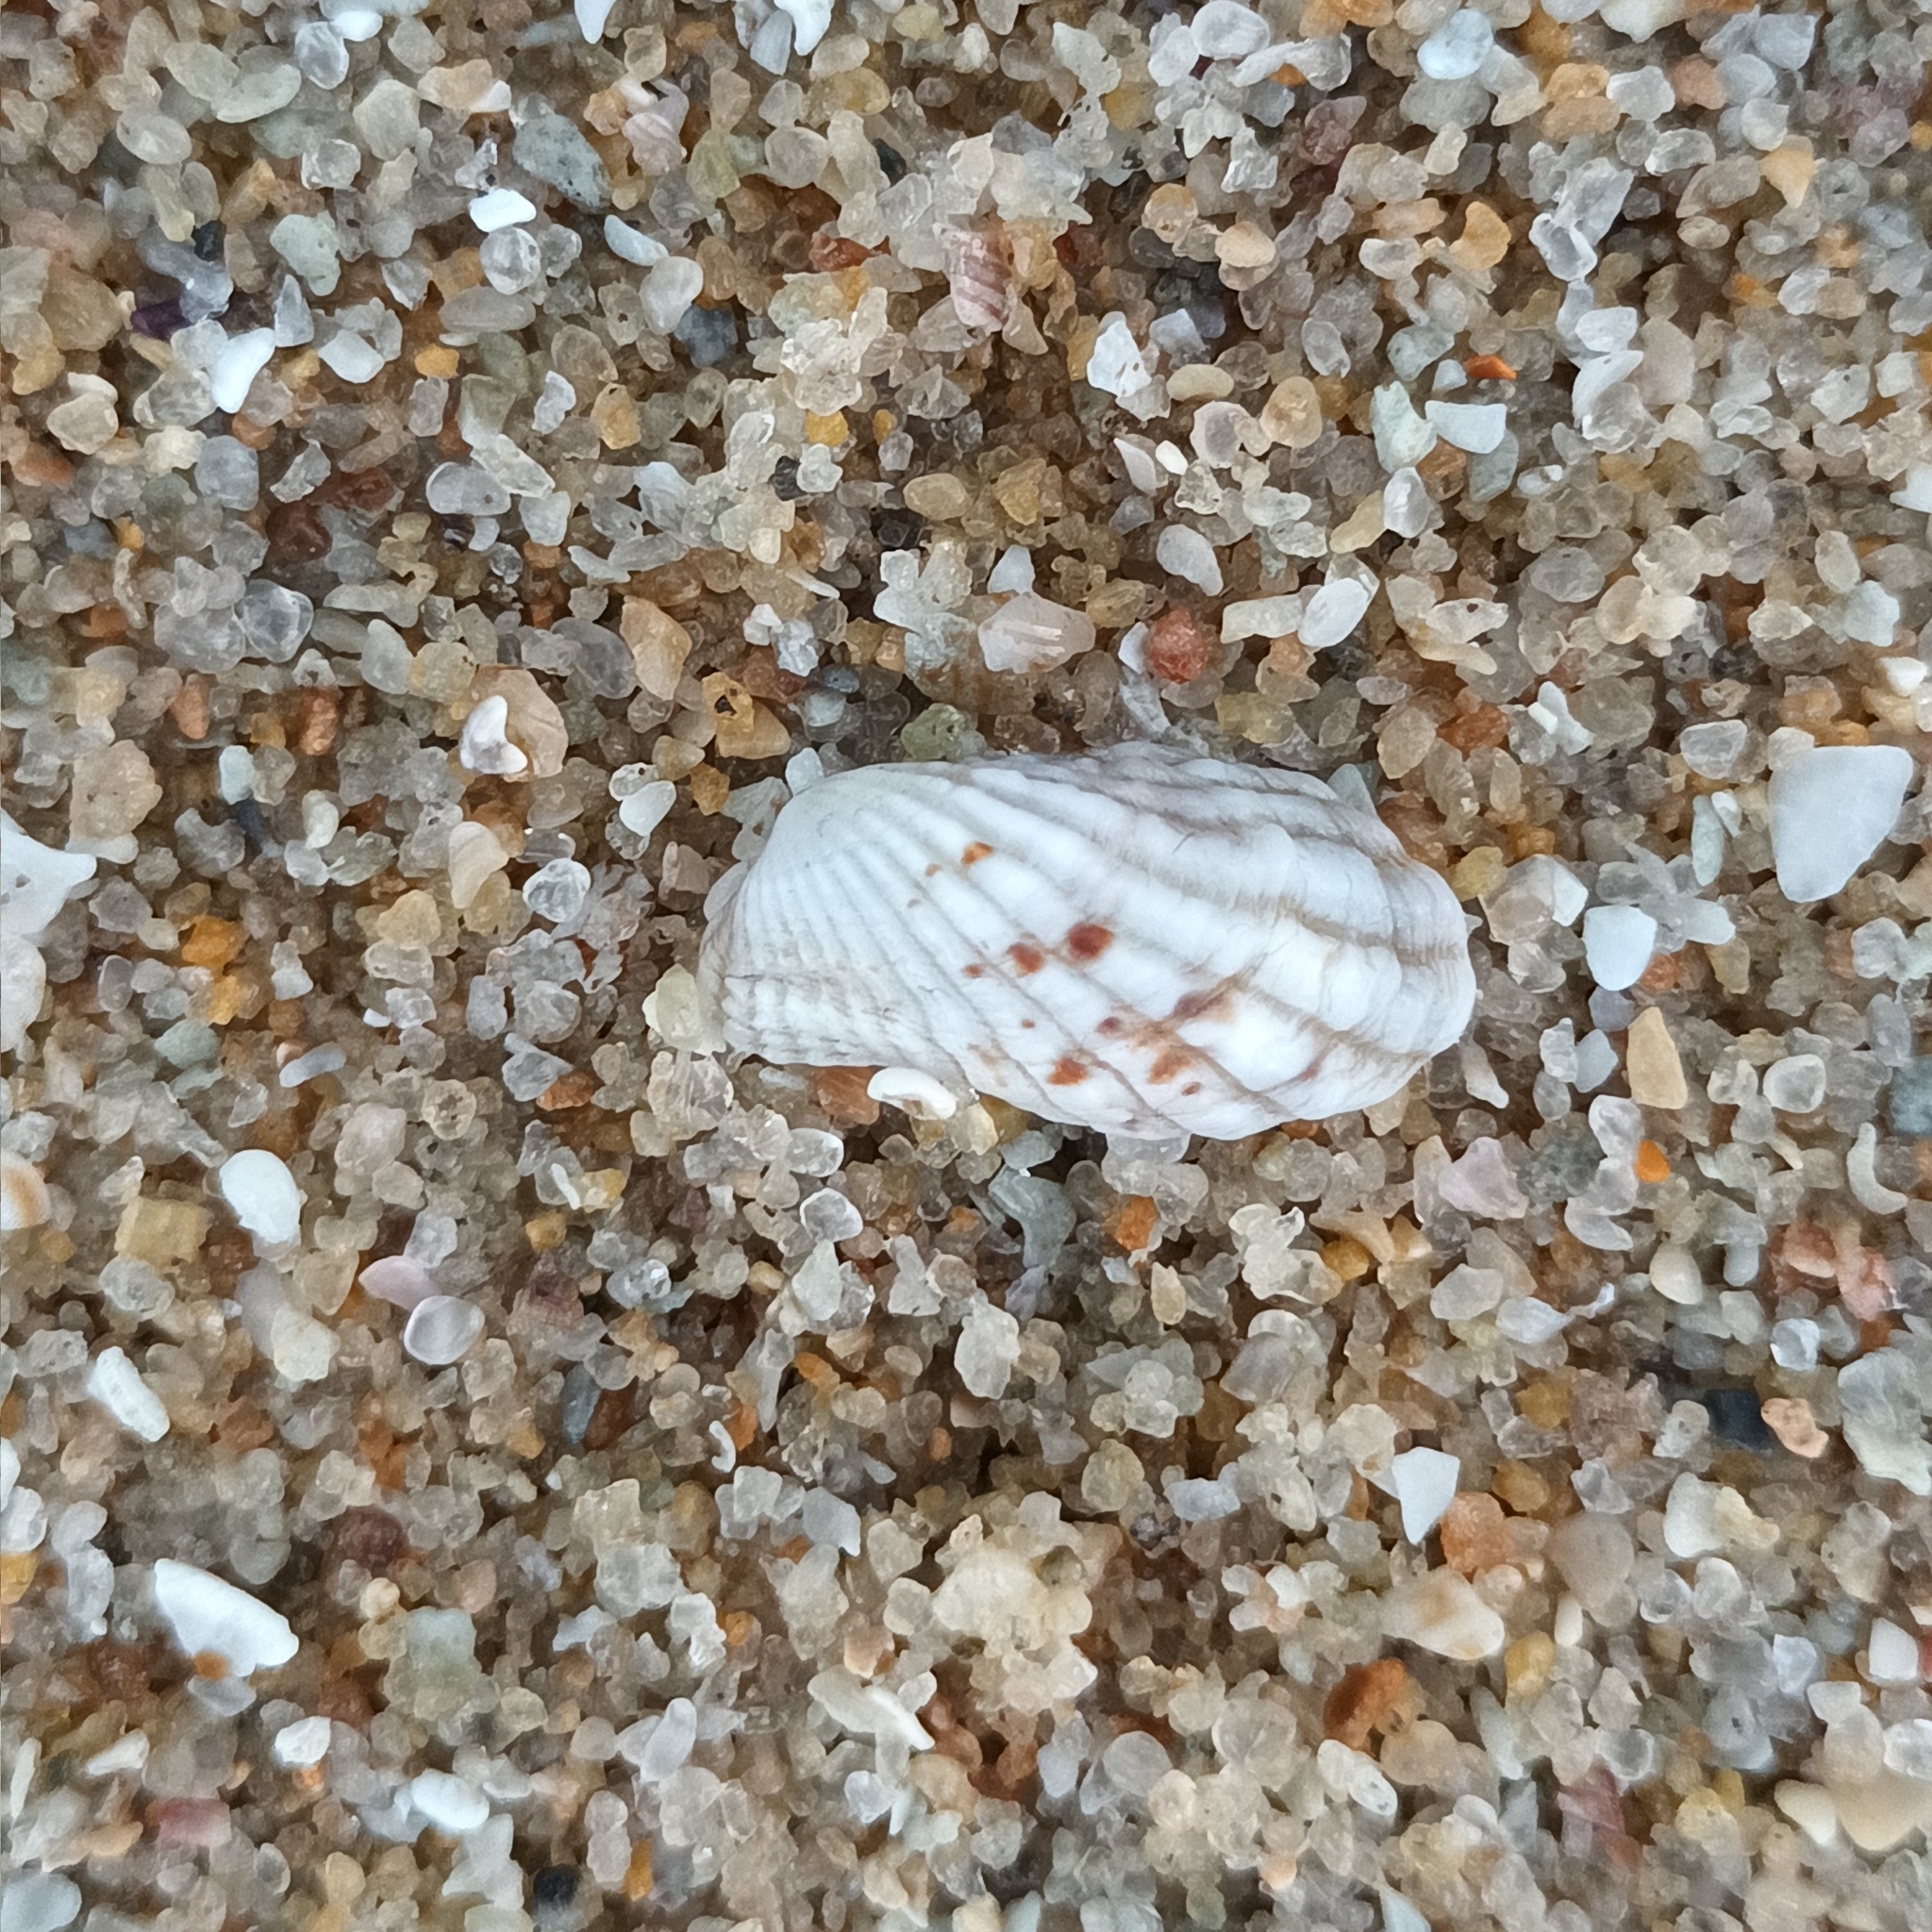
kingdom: Animalia
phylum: Mollusca
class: Bivalvia
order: Carditida
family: Carditidae
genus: Cardita
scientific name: Cardita variegata
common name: Rectangular false cockle
